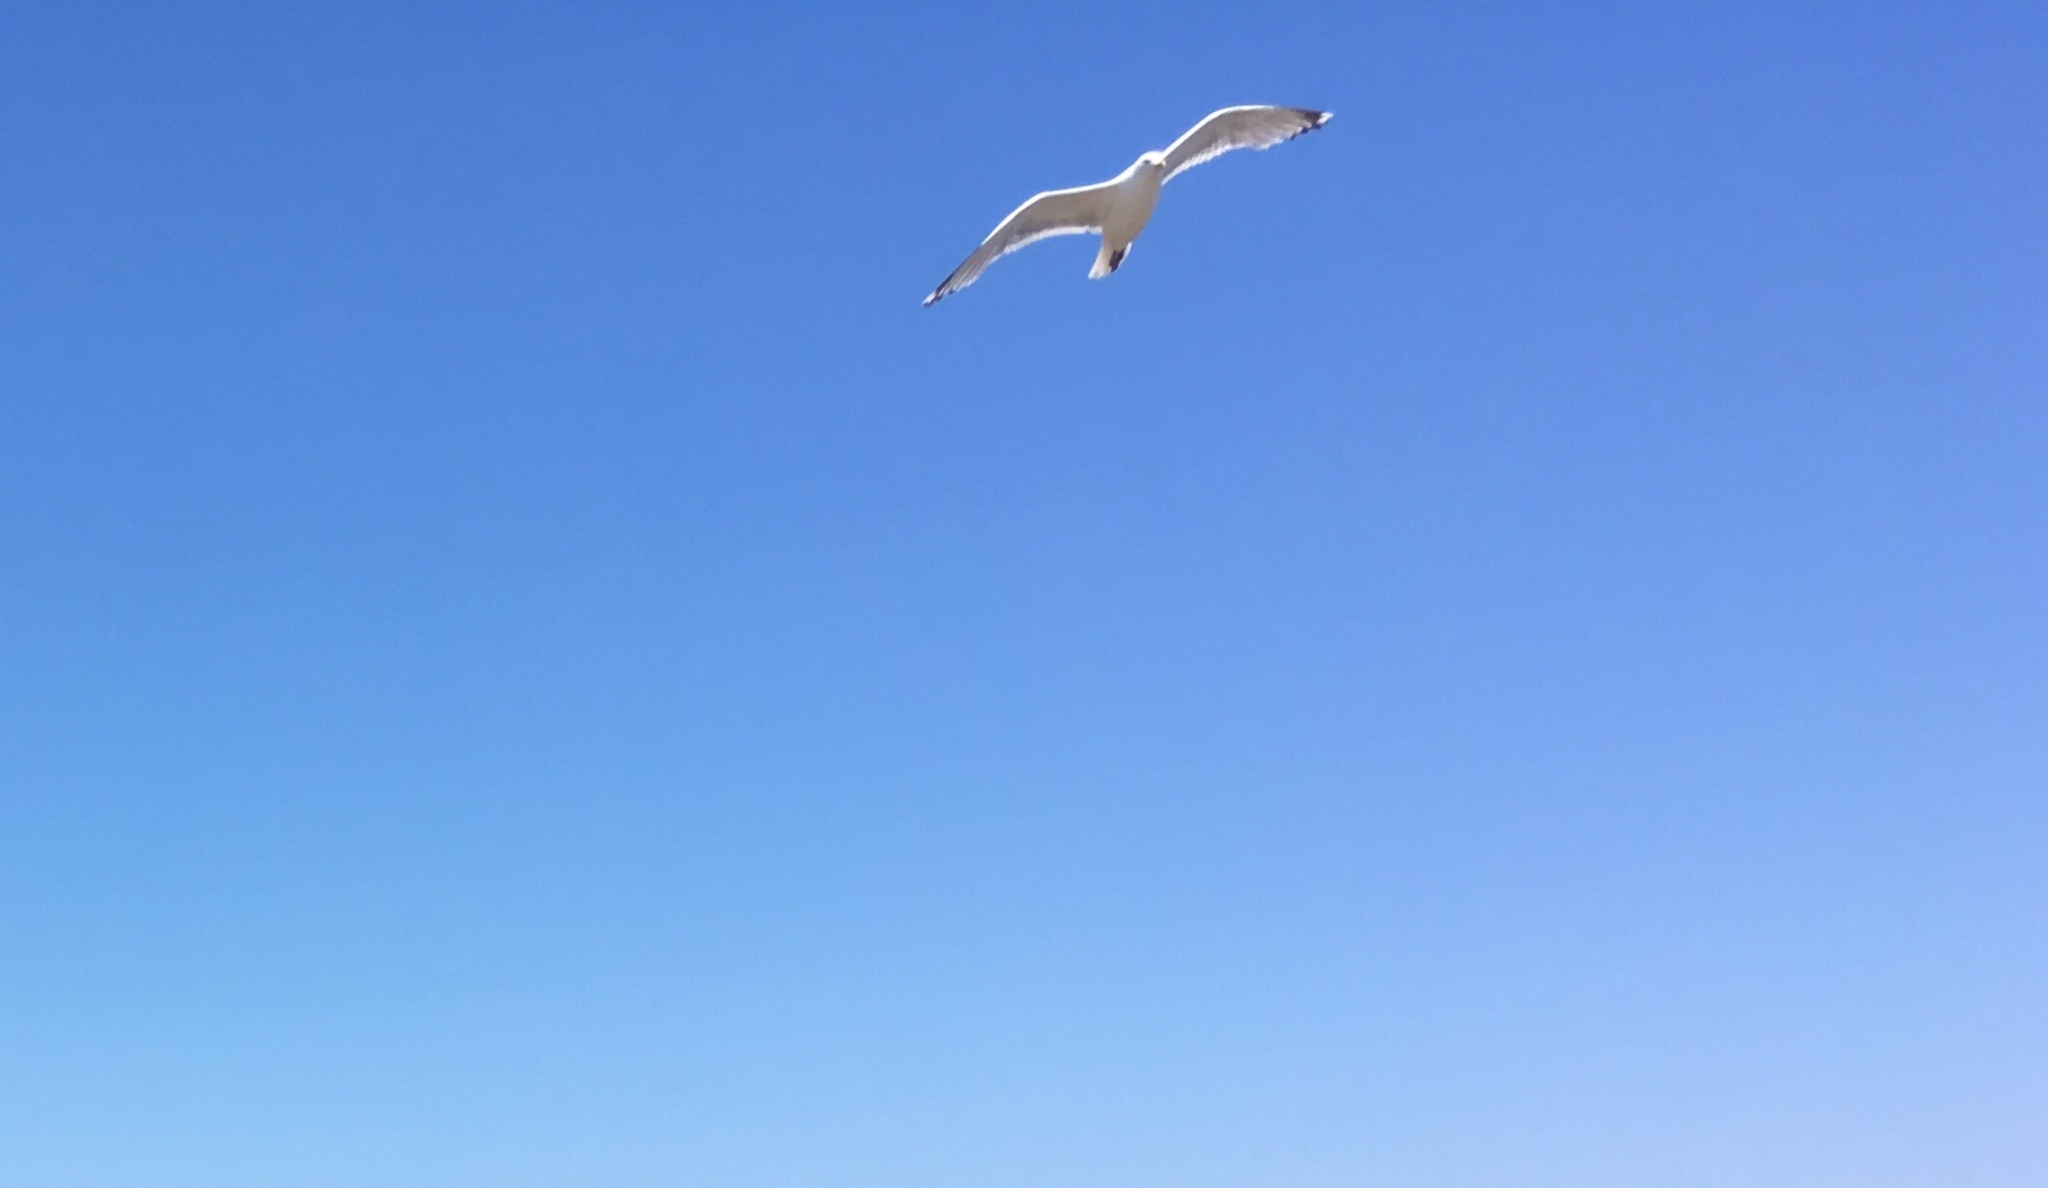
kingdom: Animalia
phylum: Chordata
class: Aves
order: Charadriiformes
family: Laridae
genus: Larus
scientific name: Larus argentatus
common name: Herring gull
